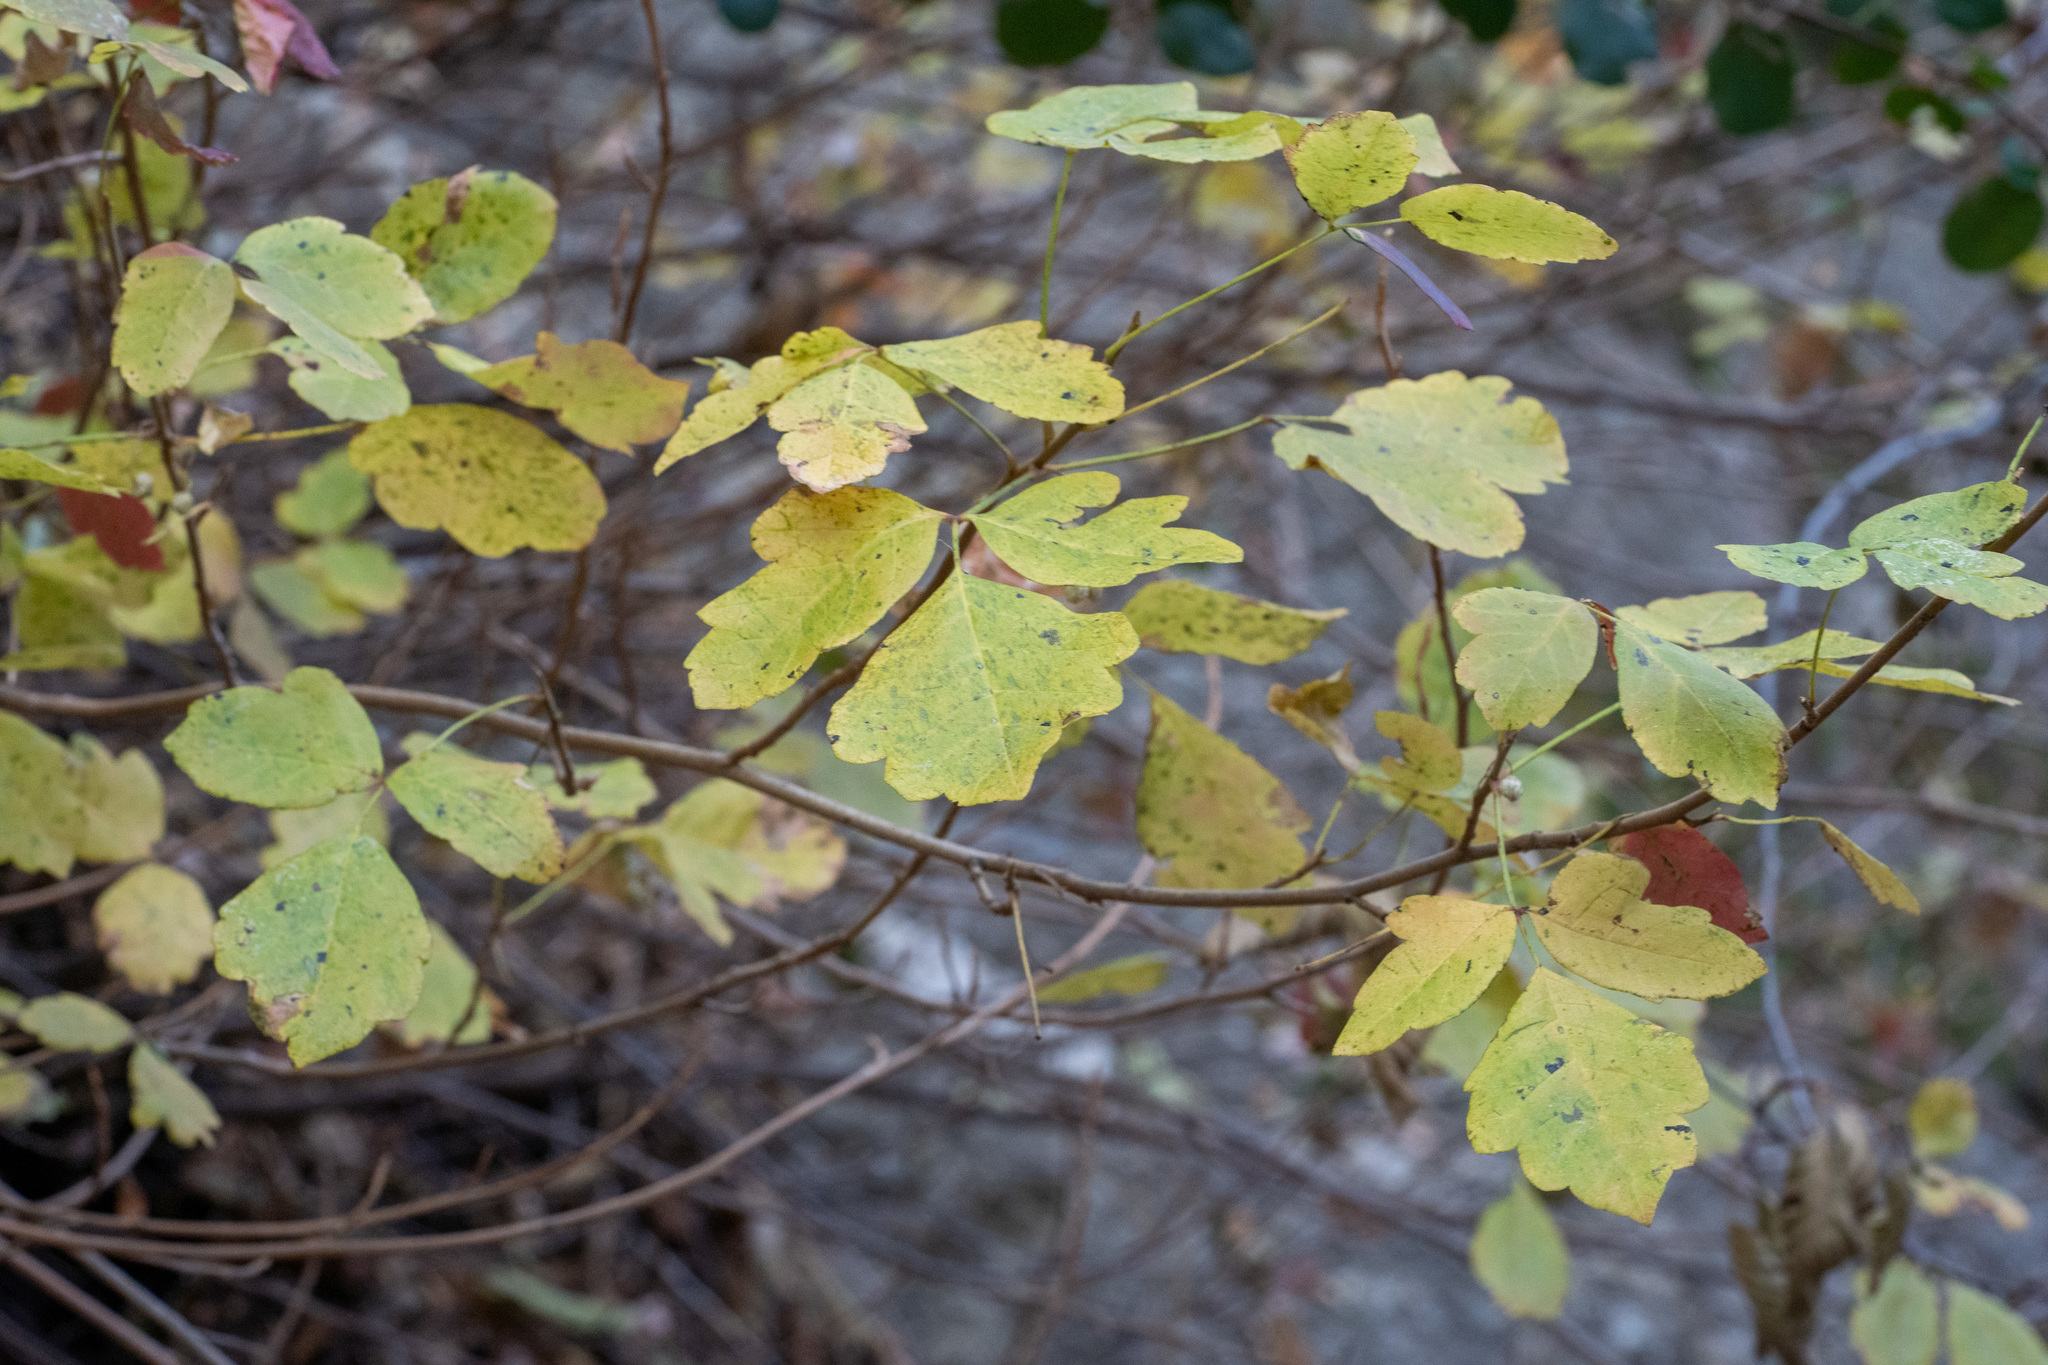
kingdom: Plantae
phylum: Tracheophyta
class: Magnoliopsida
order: Sapindales
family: Anacardiaceae
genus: Toxicodendron
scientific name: Toxicodendron diversilobum
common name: Pacific poison-oak
